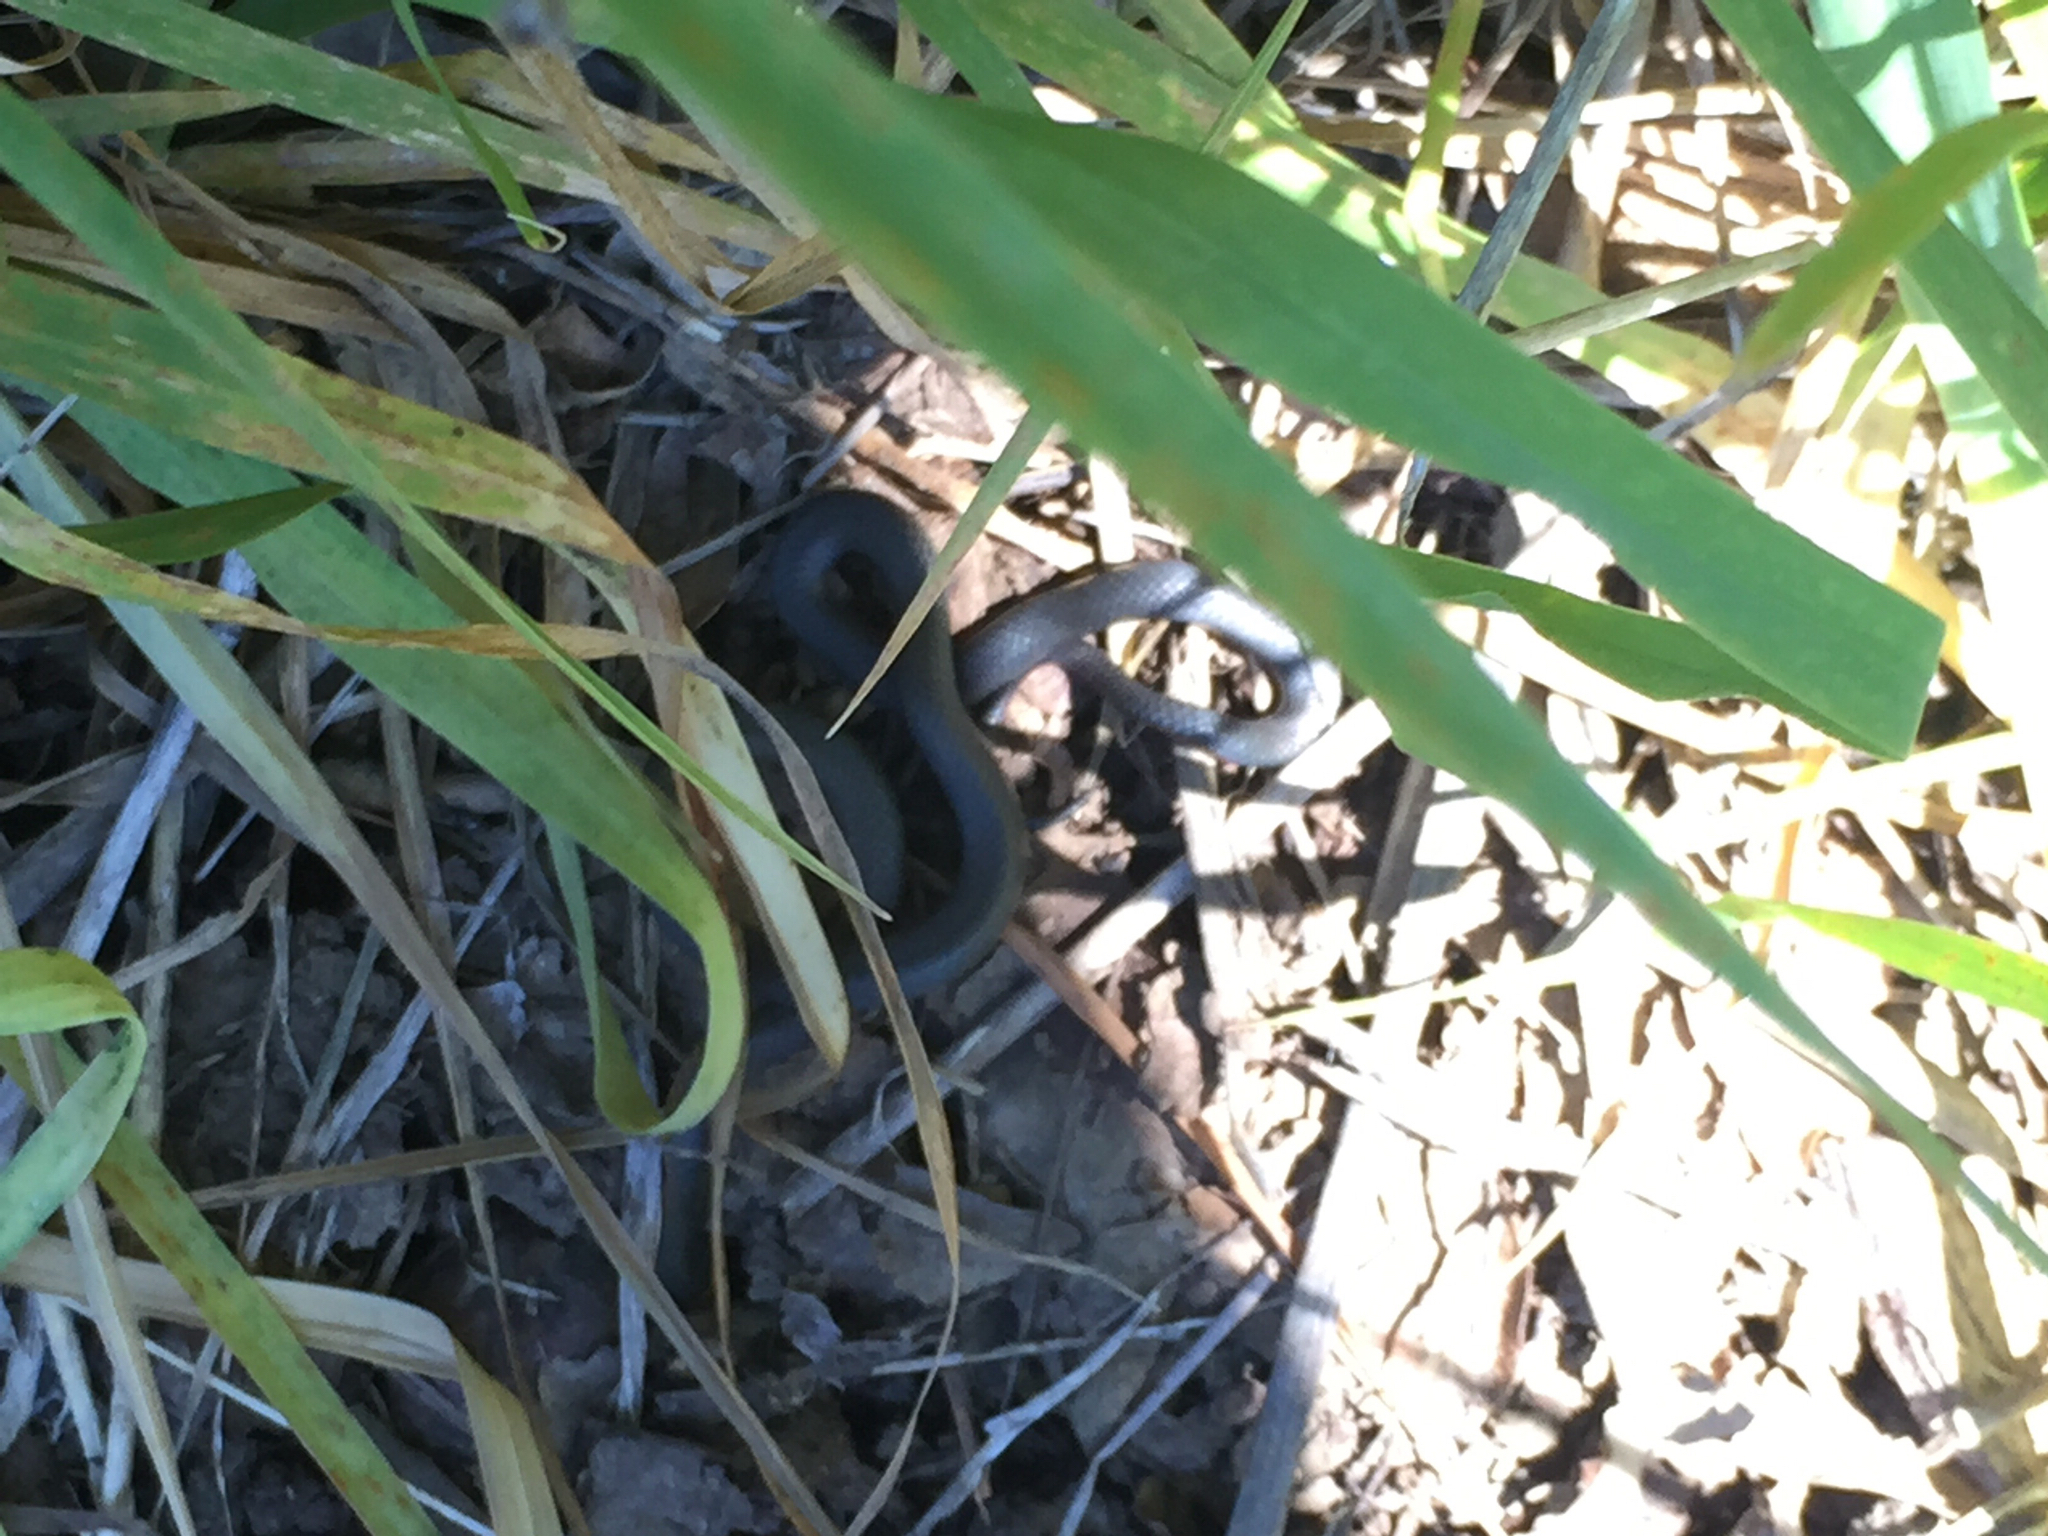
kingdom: Animalia
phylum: Chordata
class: Squamata
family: Colubridae
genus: Diadophis
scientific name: Diadophis punctatus
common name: Ringneck snake
